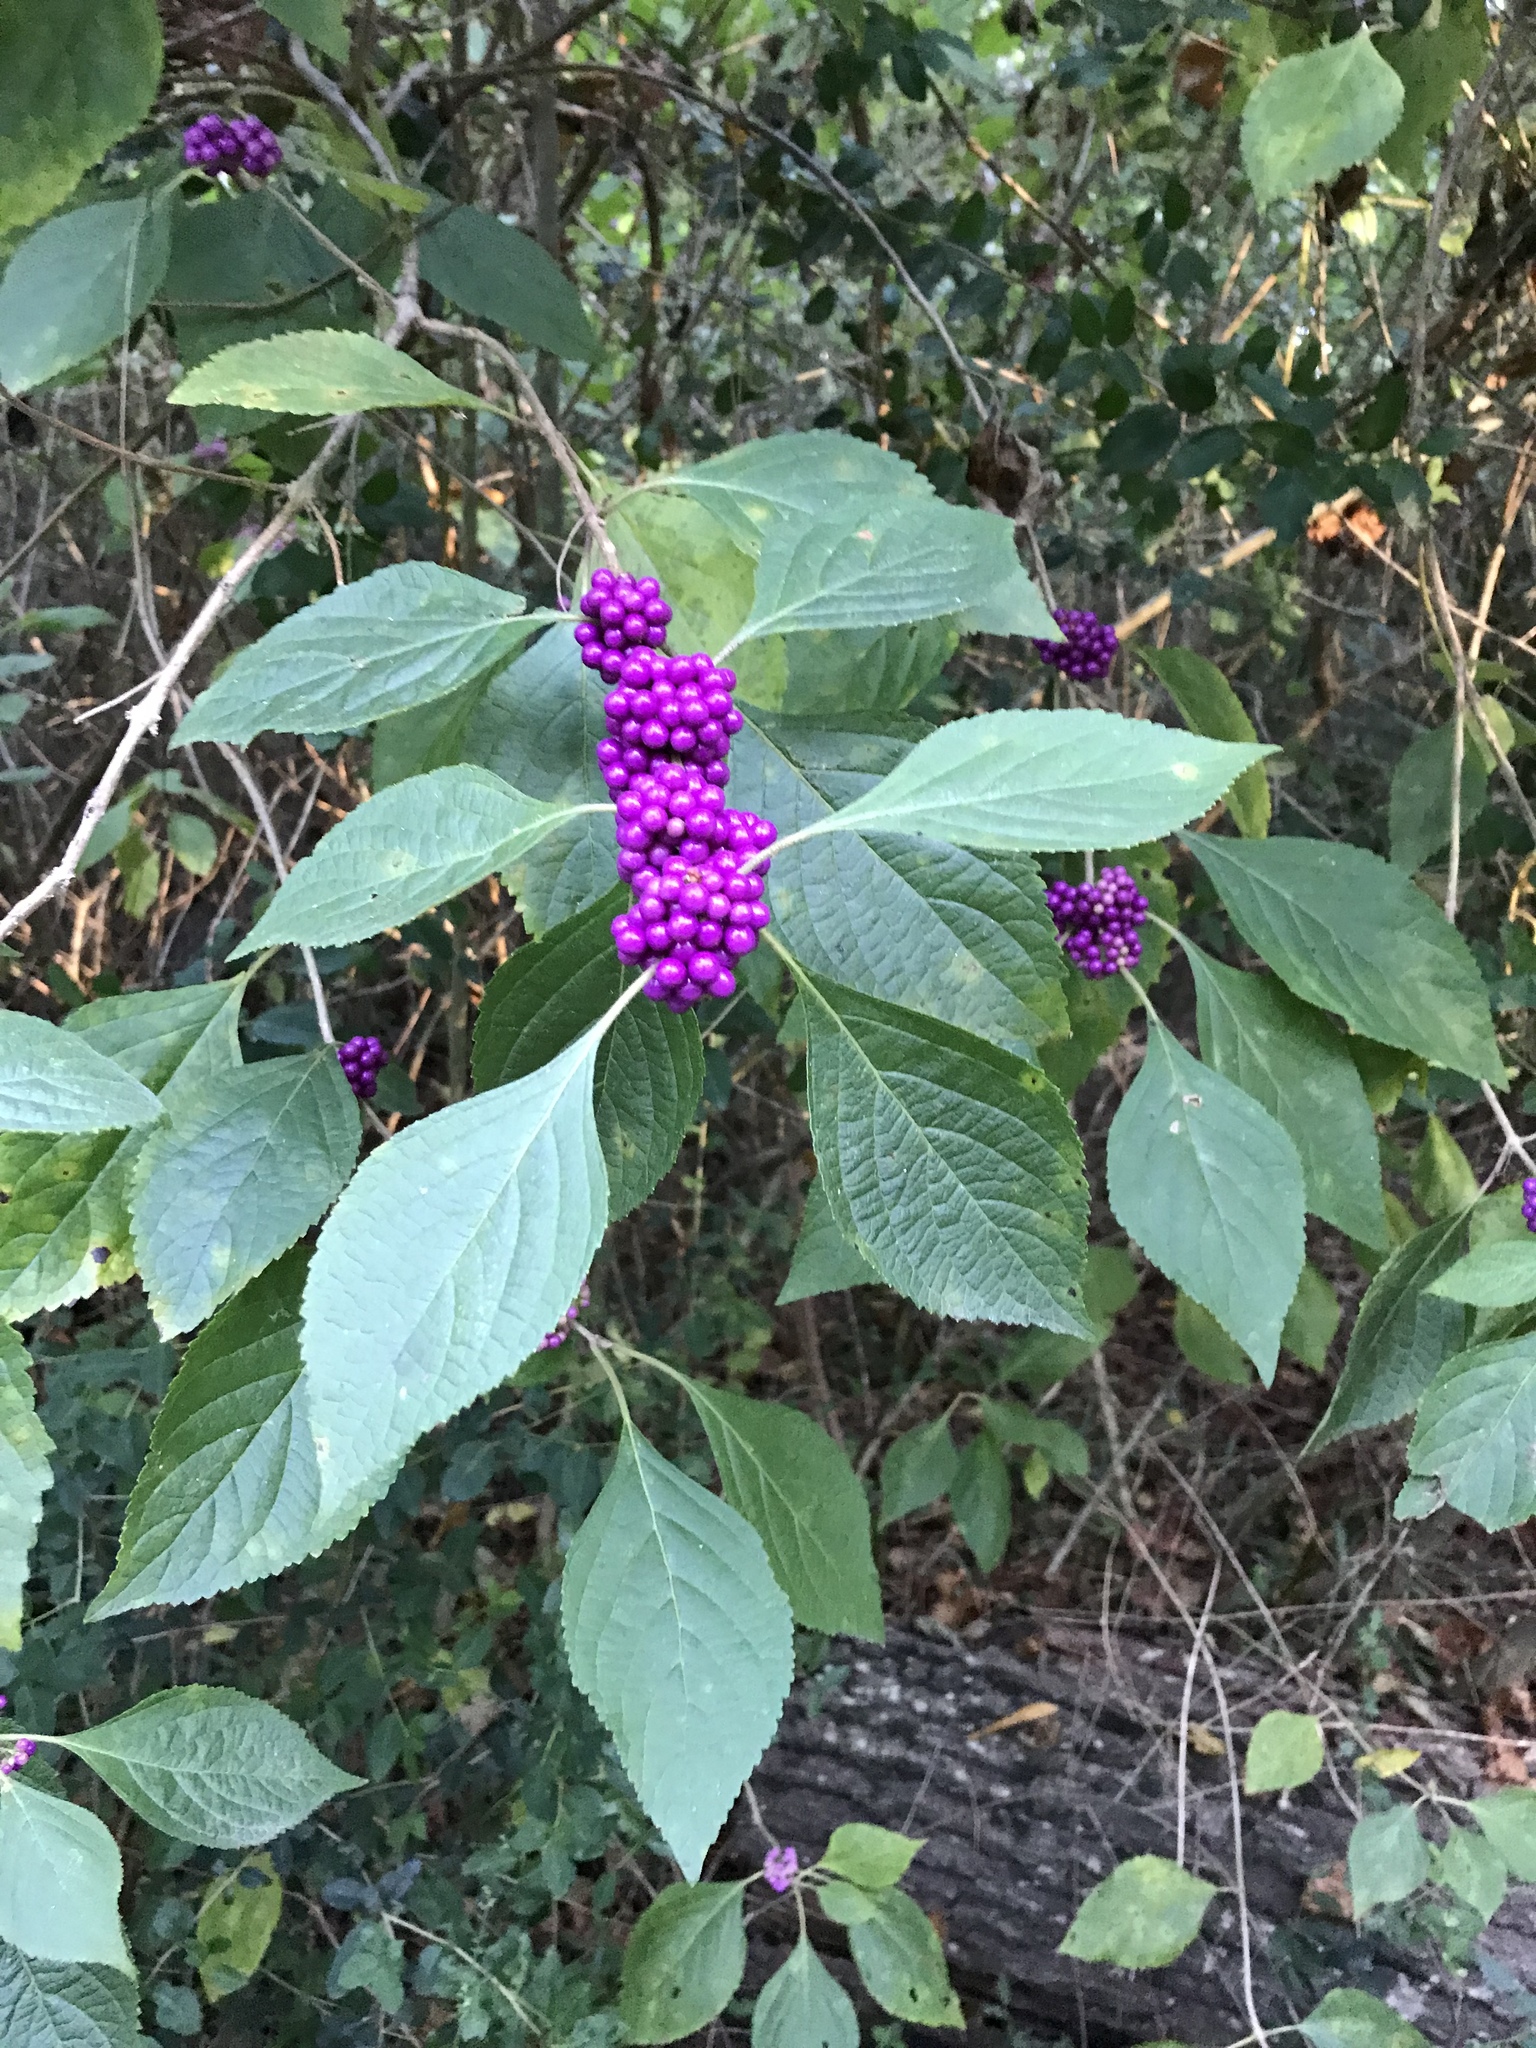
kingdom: Plantae
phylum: Tracheophyta
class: Magnoliopsida
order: Lamiales
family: Lamiaceae
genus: Callicarpa
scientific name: Callicarpa americana
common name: American beautyberry
